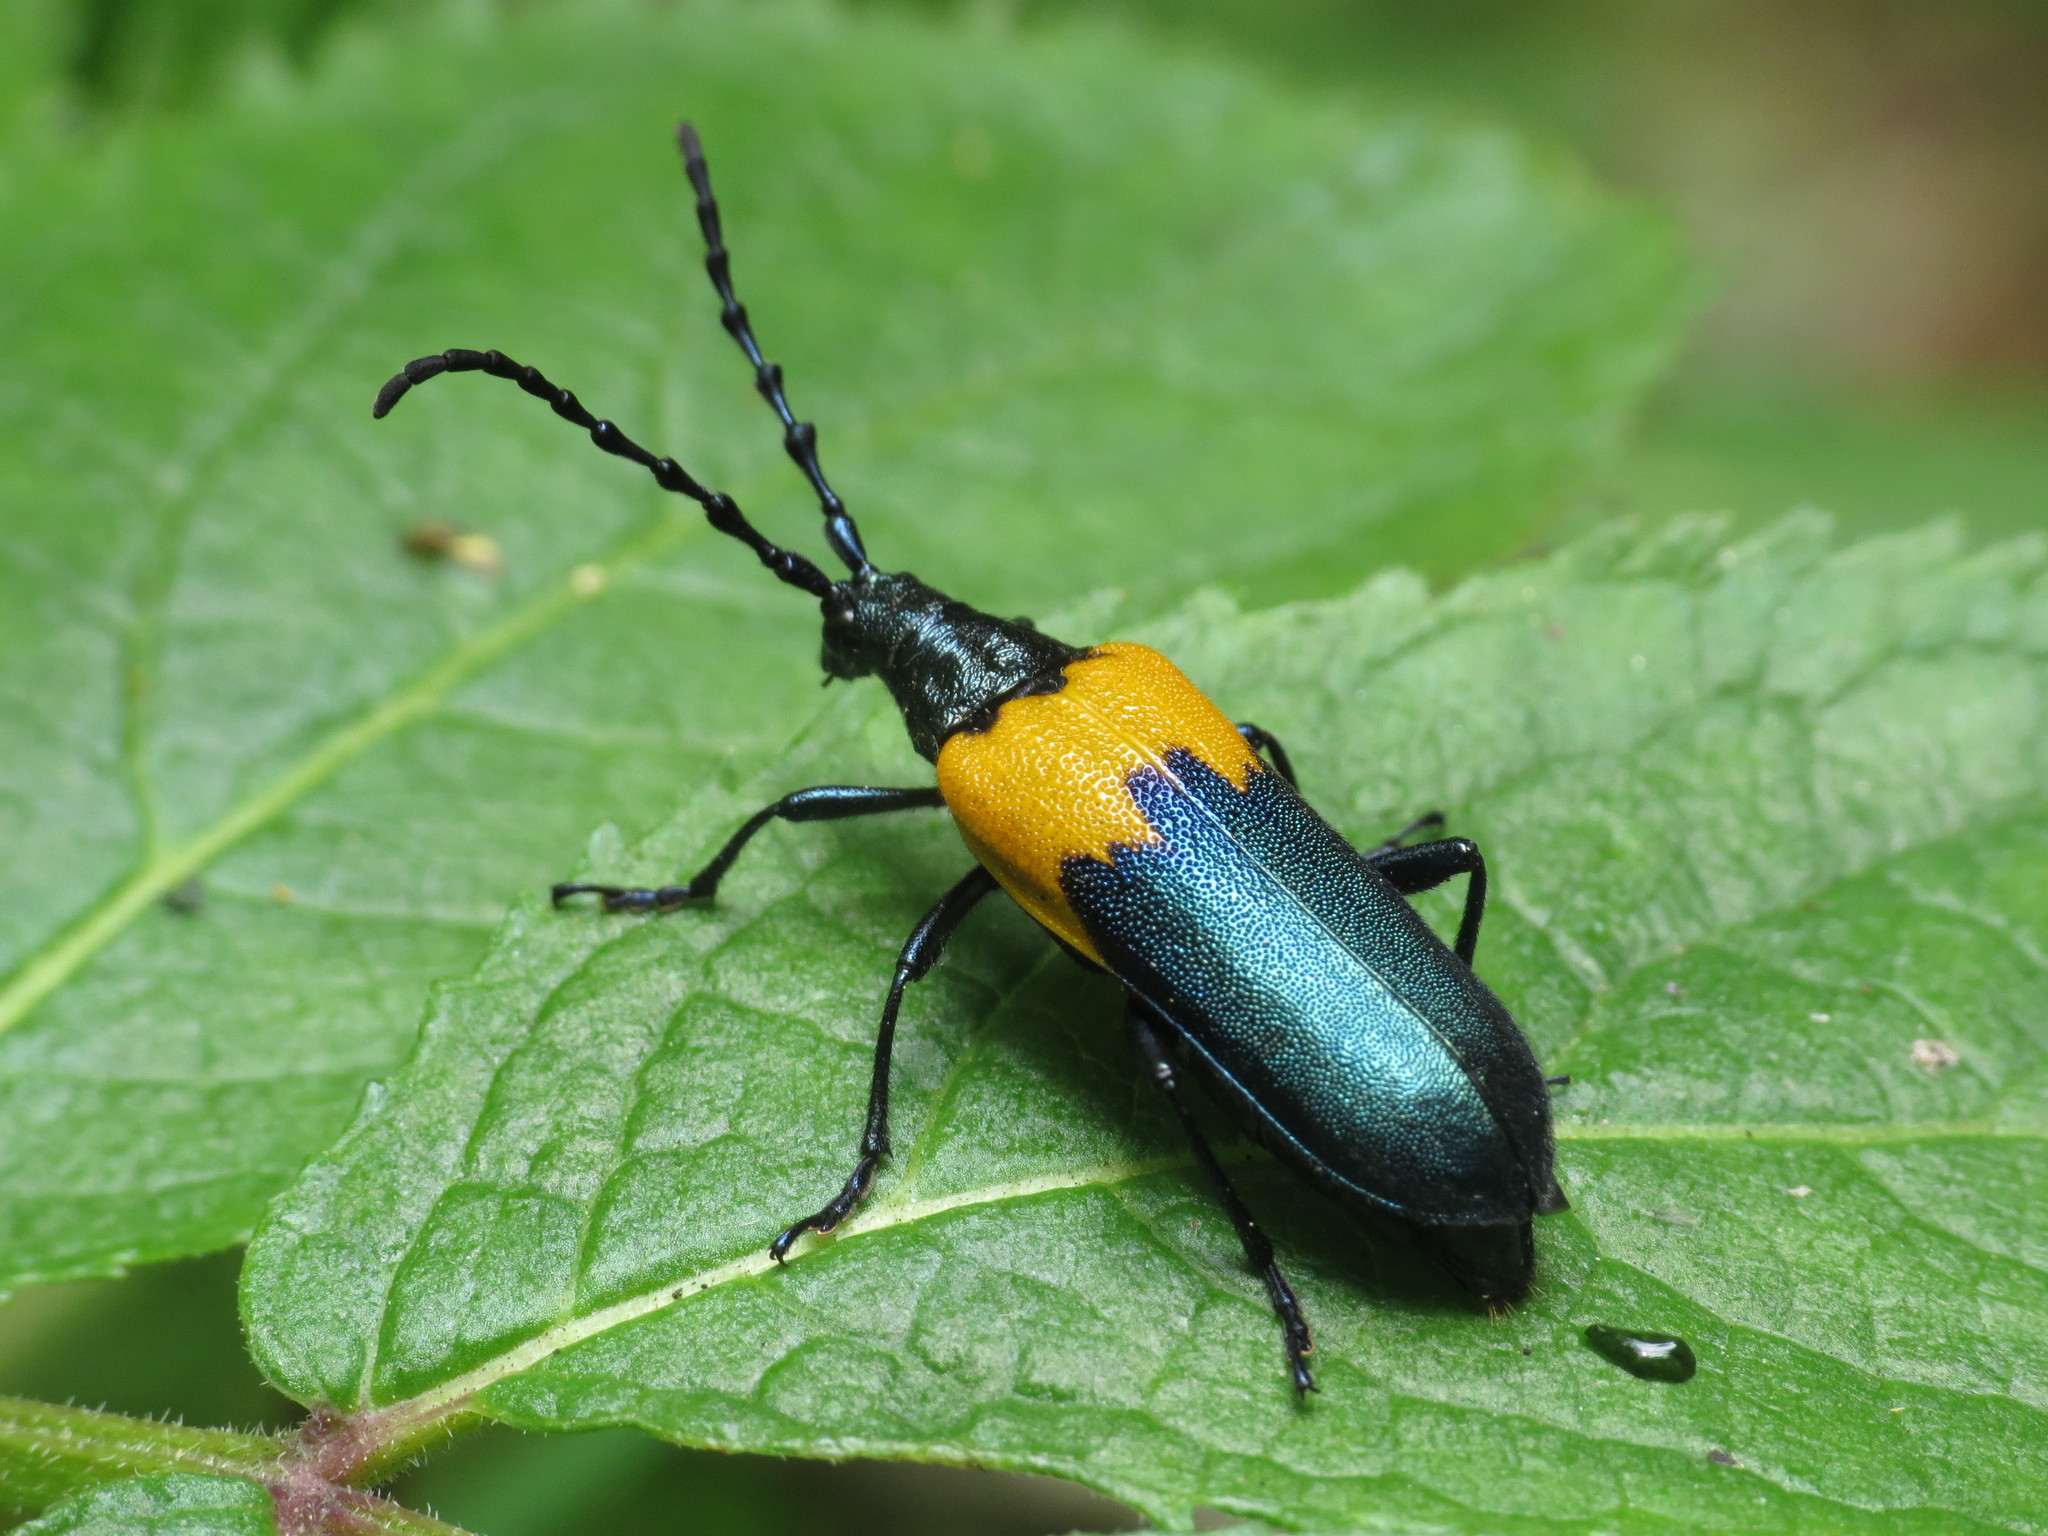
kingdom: Animalia
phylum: Arthropoda
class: Insecta
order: Coleoptera
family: Cerambycidae
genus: Desmocerus
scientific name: Desmocerus palliatus
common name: Eastern elderberry borer
